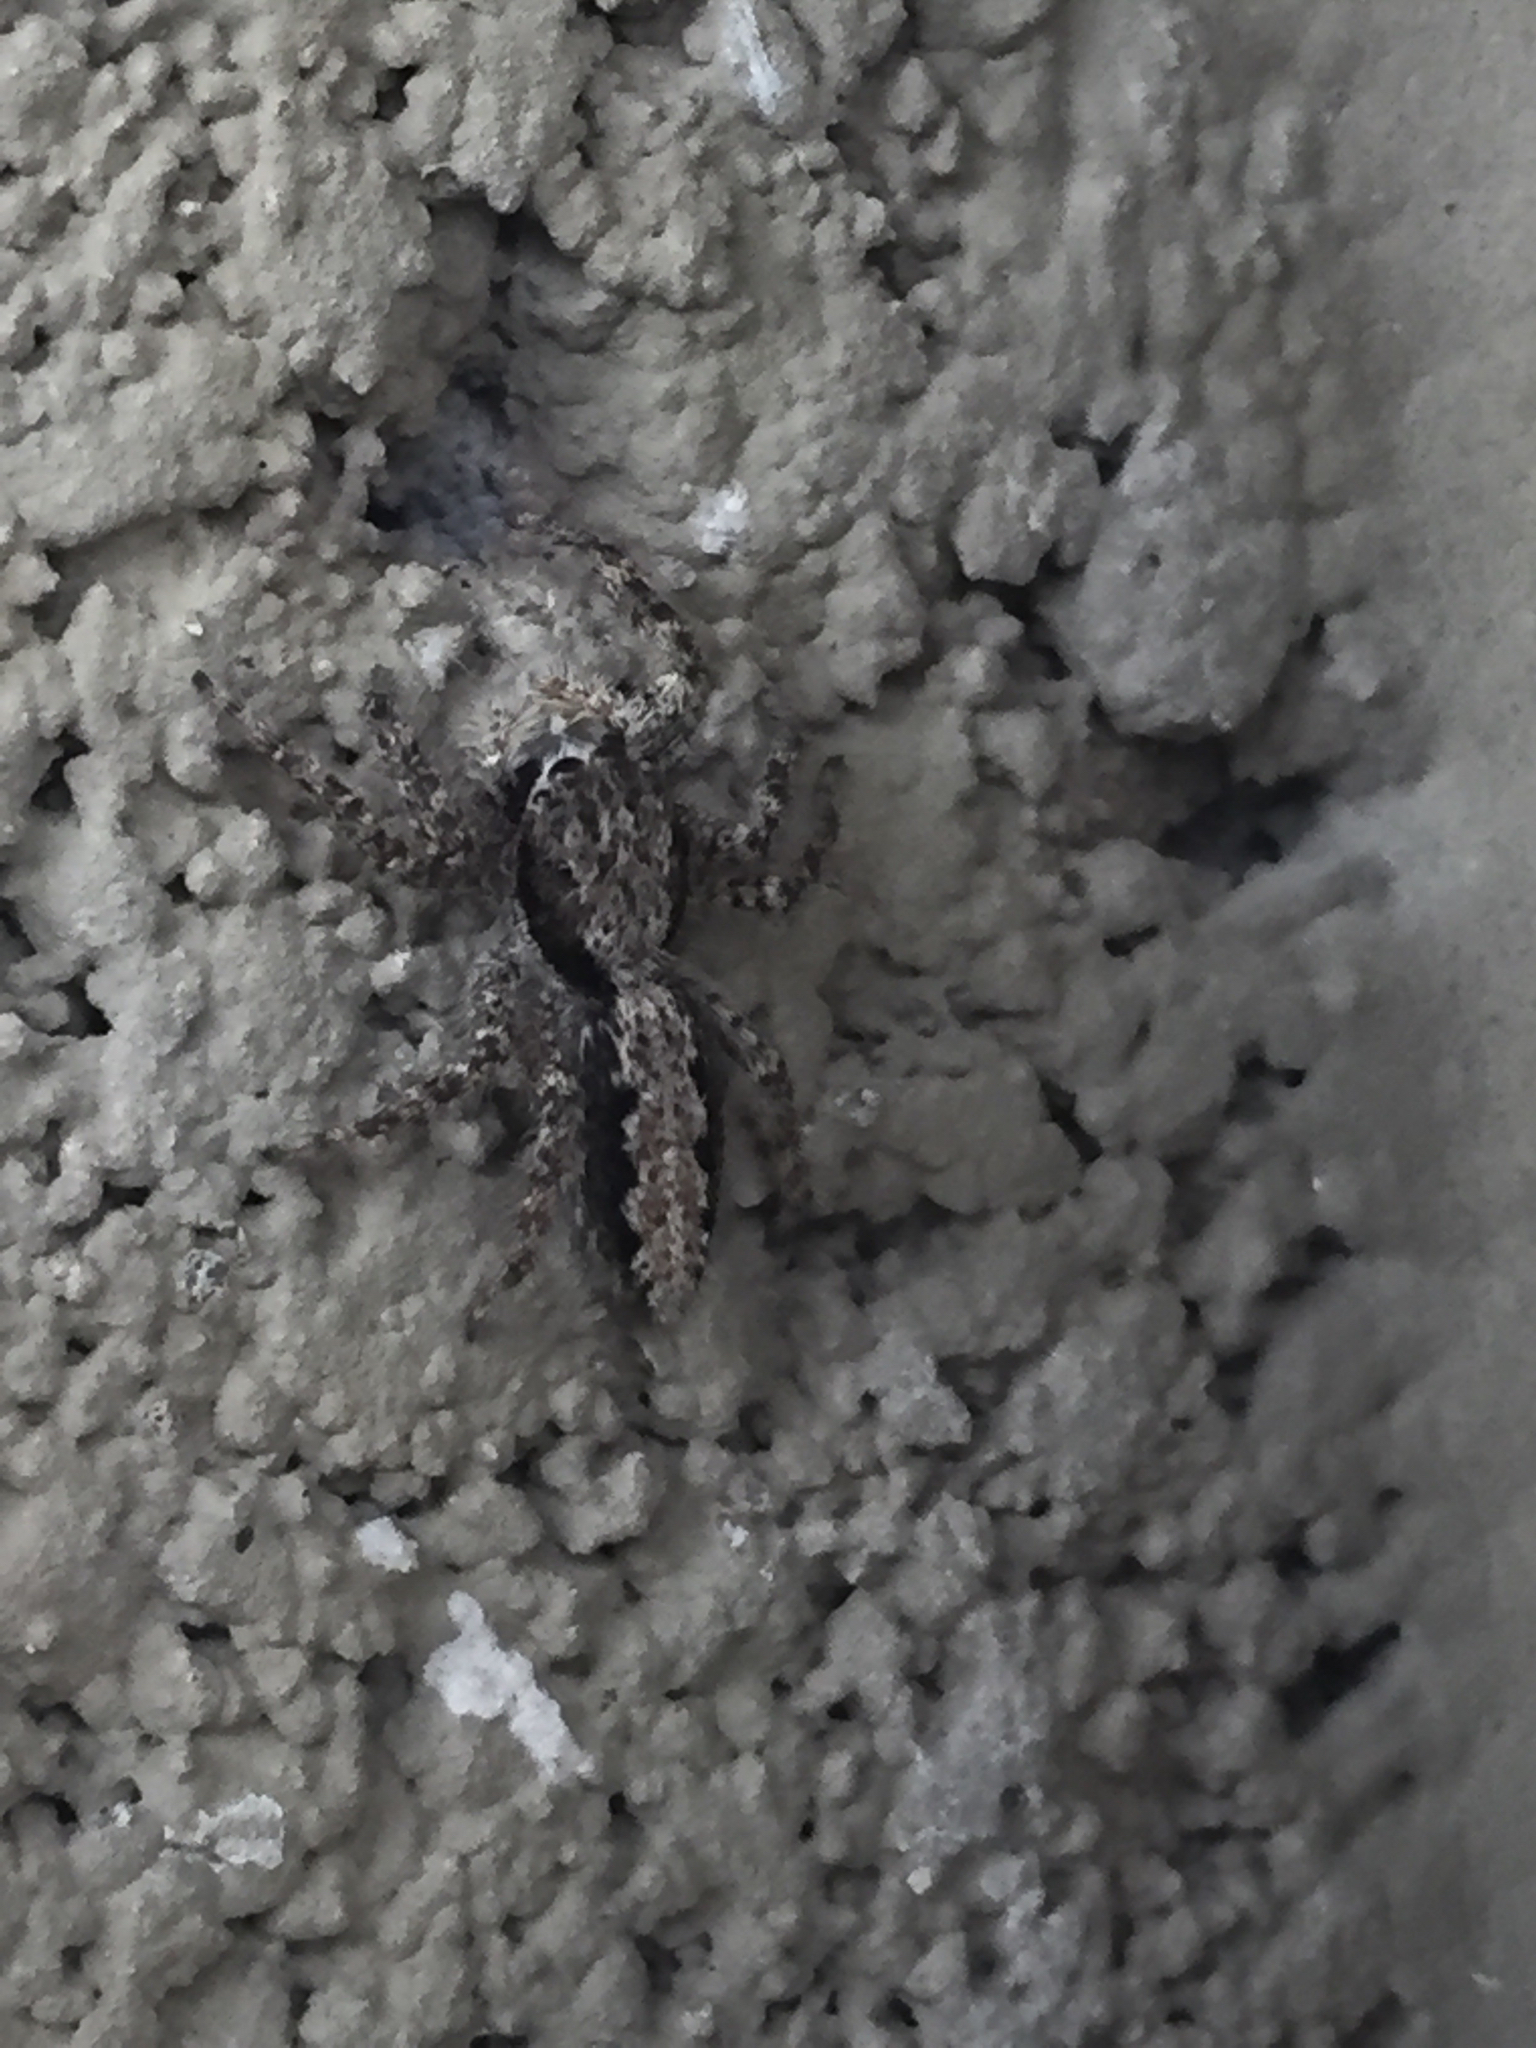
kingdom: Animalia
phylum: Arthropoda
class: Arachnida
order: Araneae
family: Salticidae
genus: Platycryptus
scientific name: Platycryptus californicus
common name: Jumping spiders
